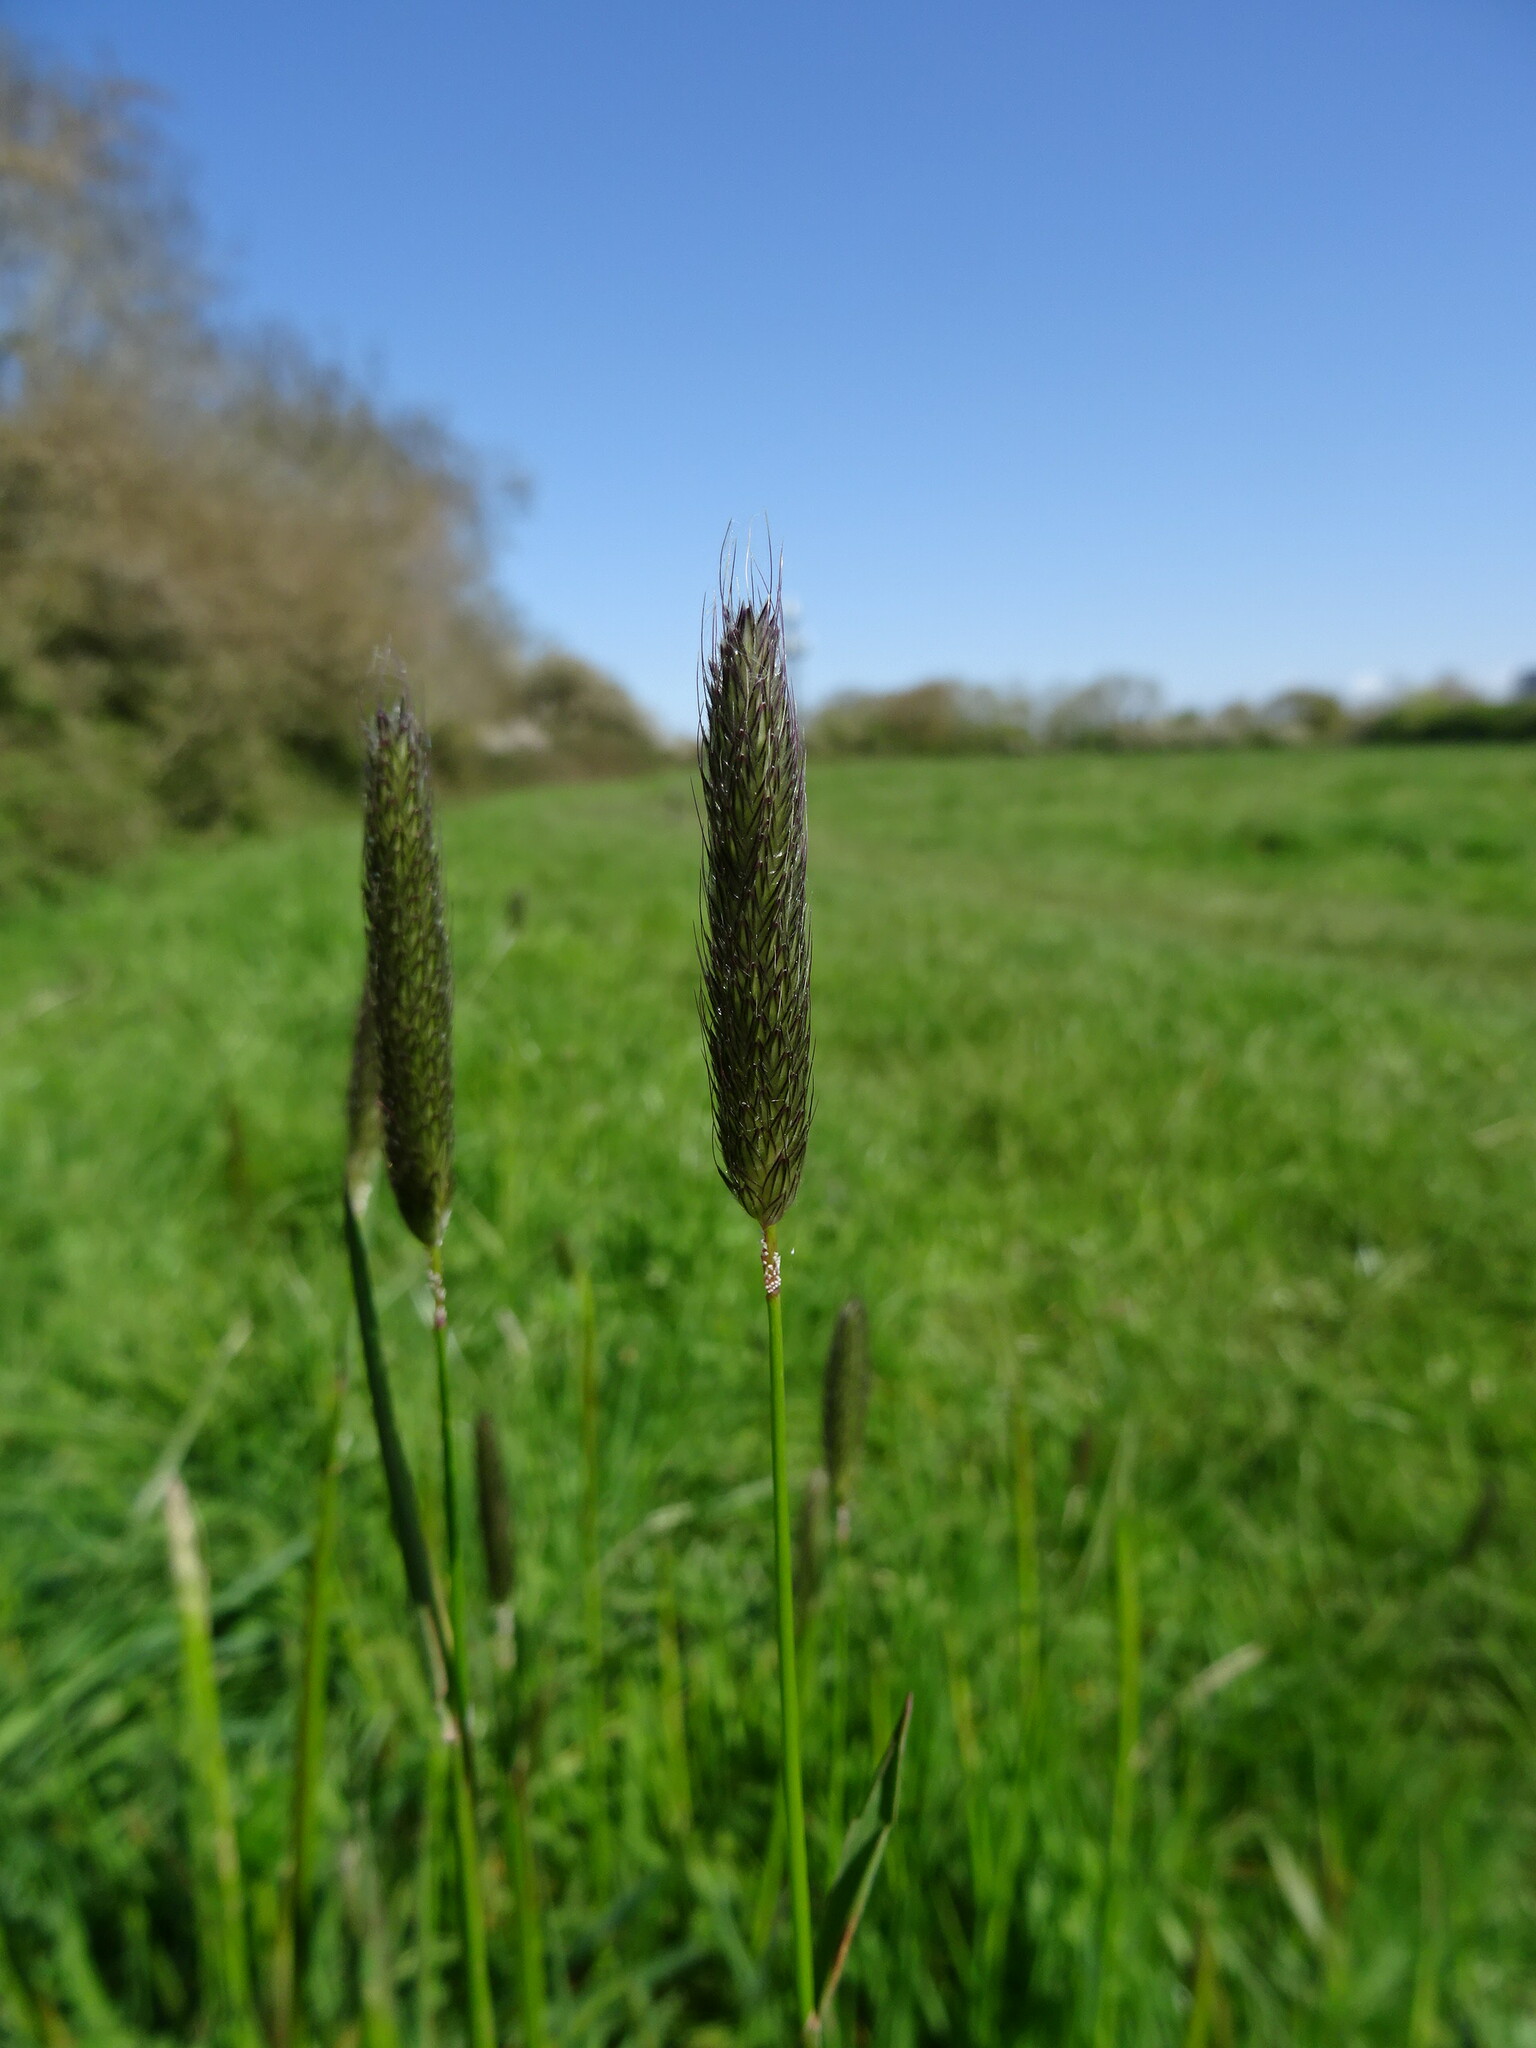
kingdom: Plantae
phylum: Tracheophyta
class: Liliopsida
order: Poales
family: Poaceae
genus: Alopecurus
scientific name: Alopecurus pratensis
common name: Meadow foxtail
